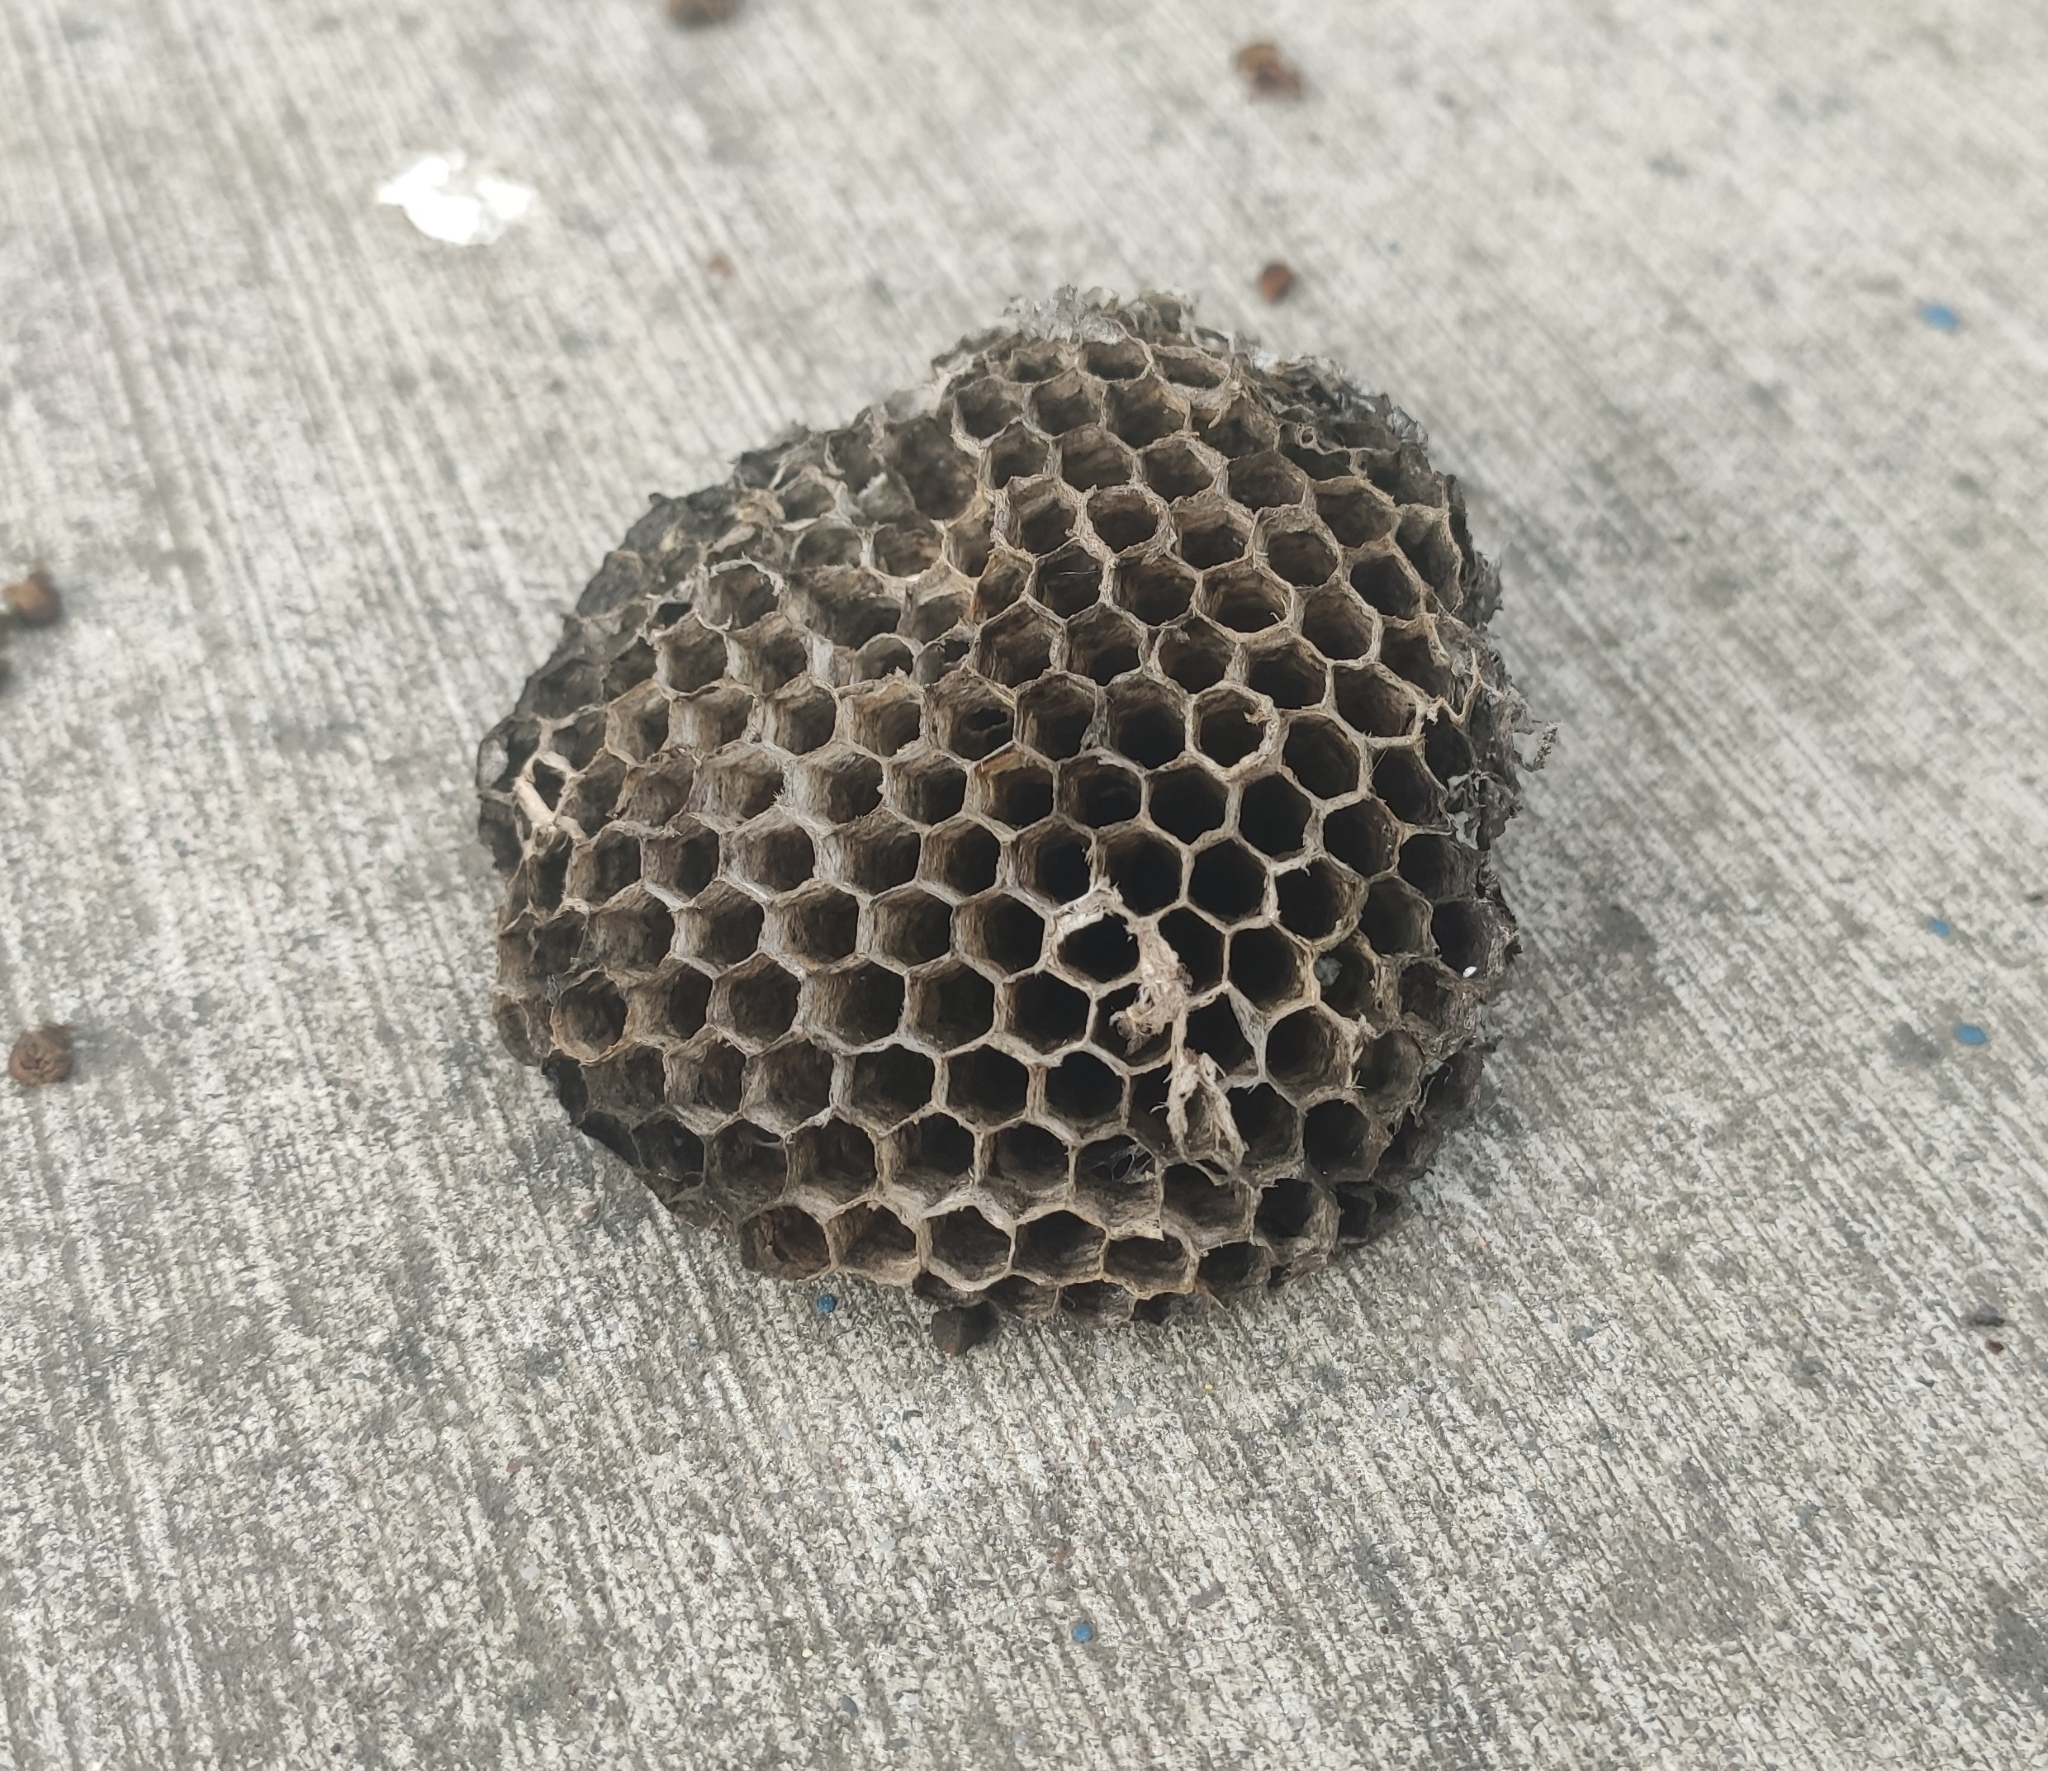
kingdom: Animalia
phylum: Arthropoda
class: Insecta
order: Hymenoptera
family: Vespidae
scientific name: Vespidae
